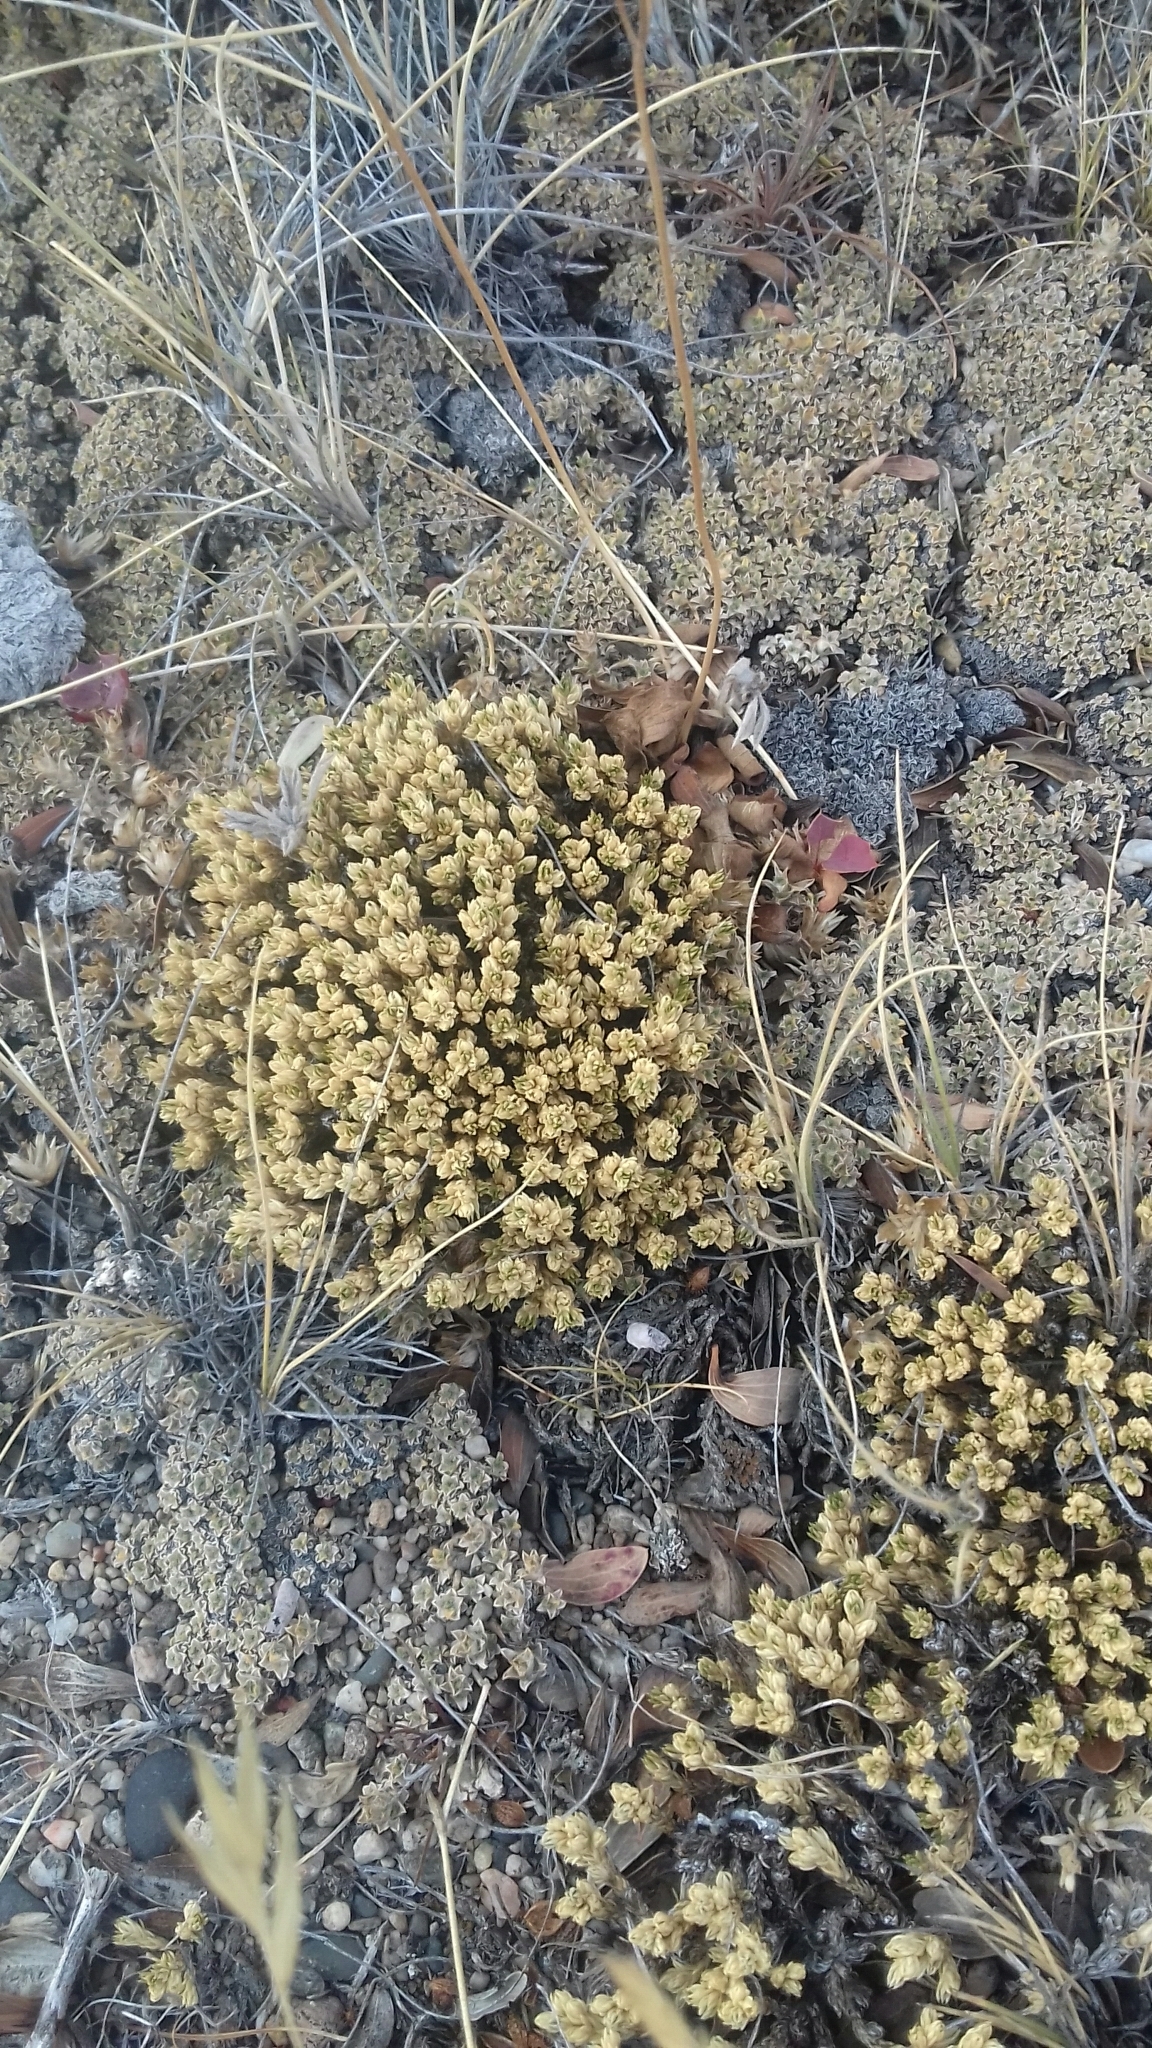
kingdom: Plantae
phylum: Tracheophyta
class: Magnoliopsida
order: Caryophyllales
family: Caryophyllaceae
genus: Colobanthus
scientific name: Colobanthus lycopodioides
